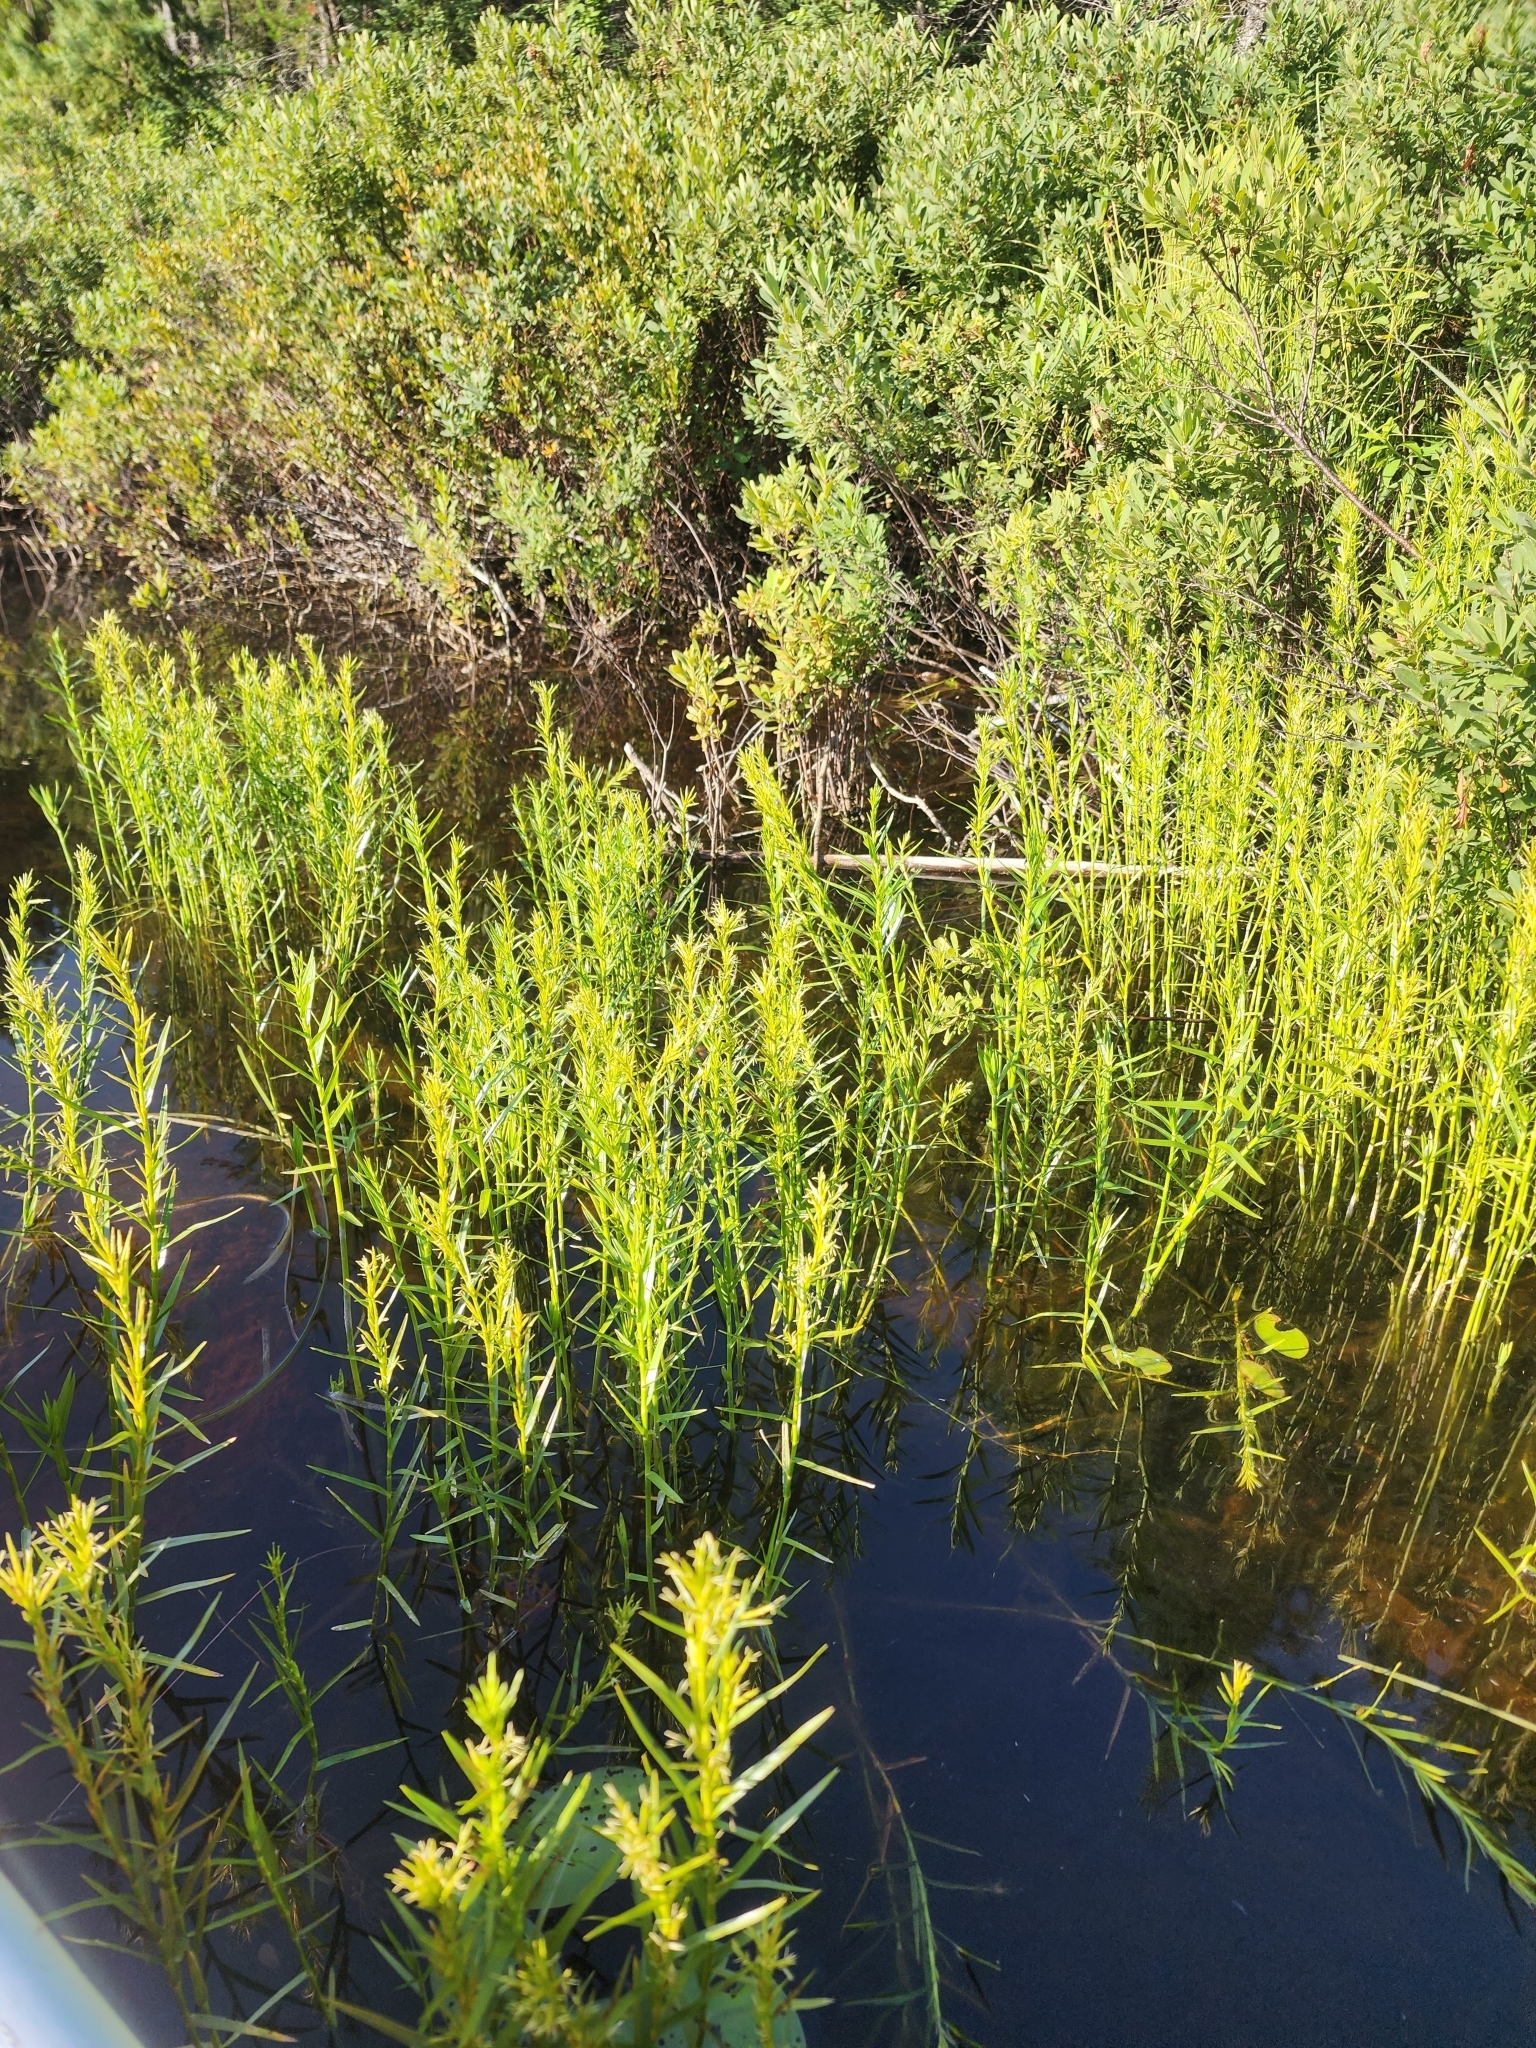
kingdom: Plantae
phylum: Tracheophyta
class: Liliopsida
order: Poales
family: Cyperaceae
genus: Dulichium
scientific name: Dulichium arundinaceum
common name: Three-way sedge
